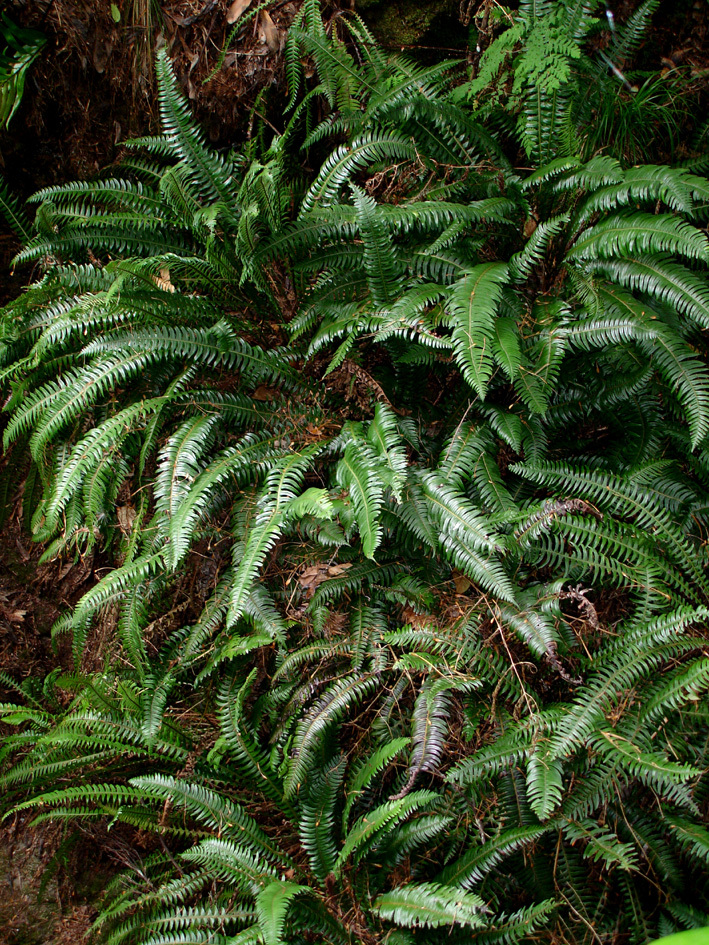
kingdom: Plantae
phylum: Tracheophyta
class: Polypodiopsida
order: Polypodiales
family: Blechnaceae
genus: Austroblechnum
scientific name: Austroblechnum durum
